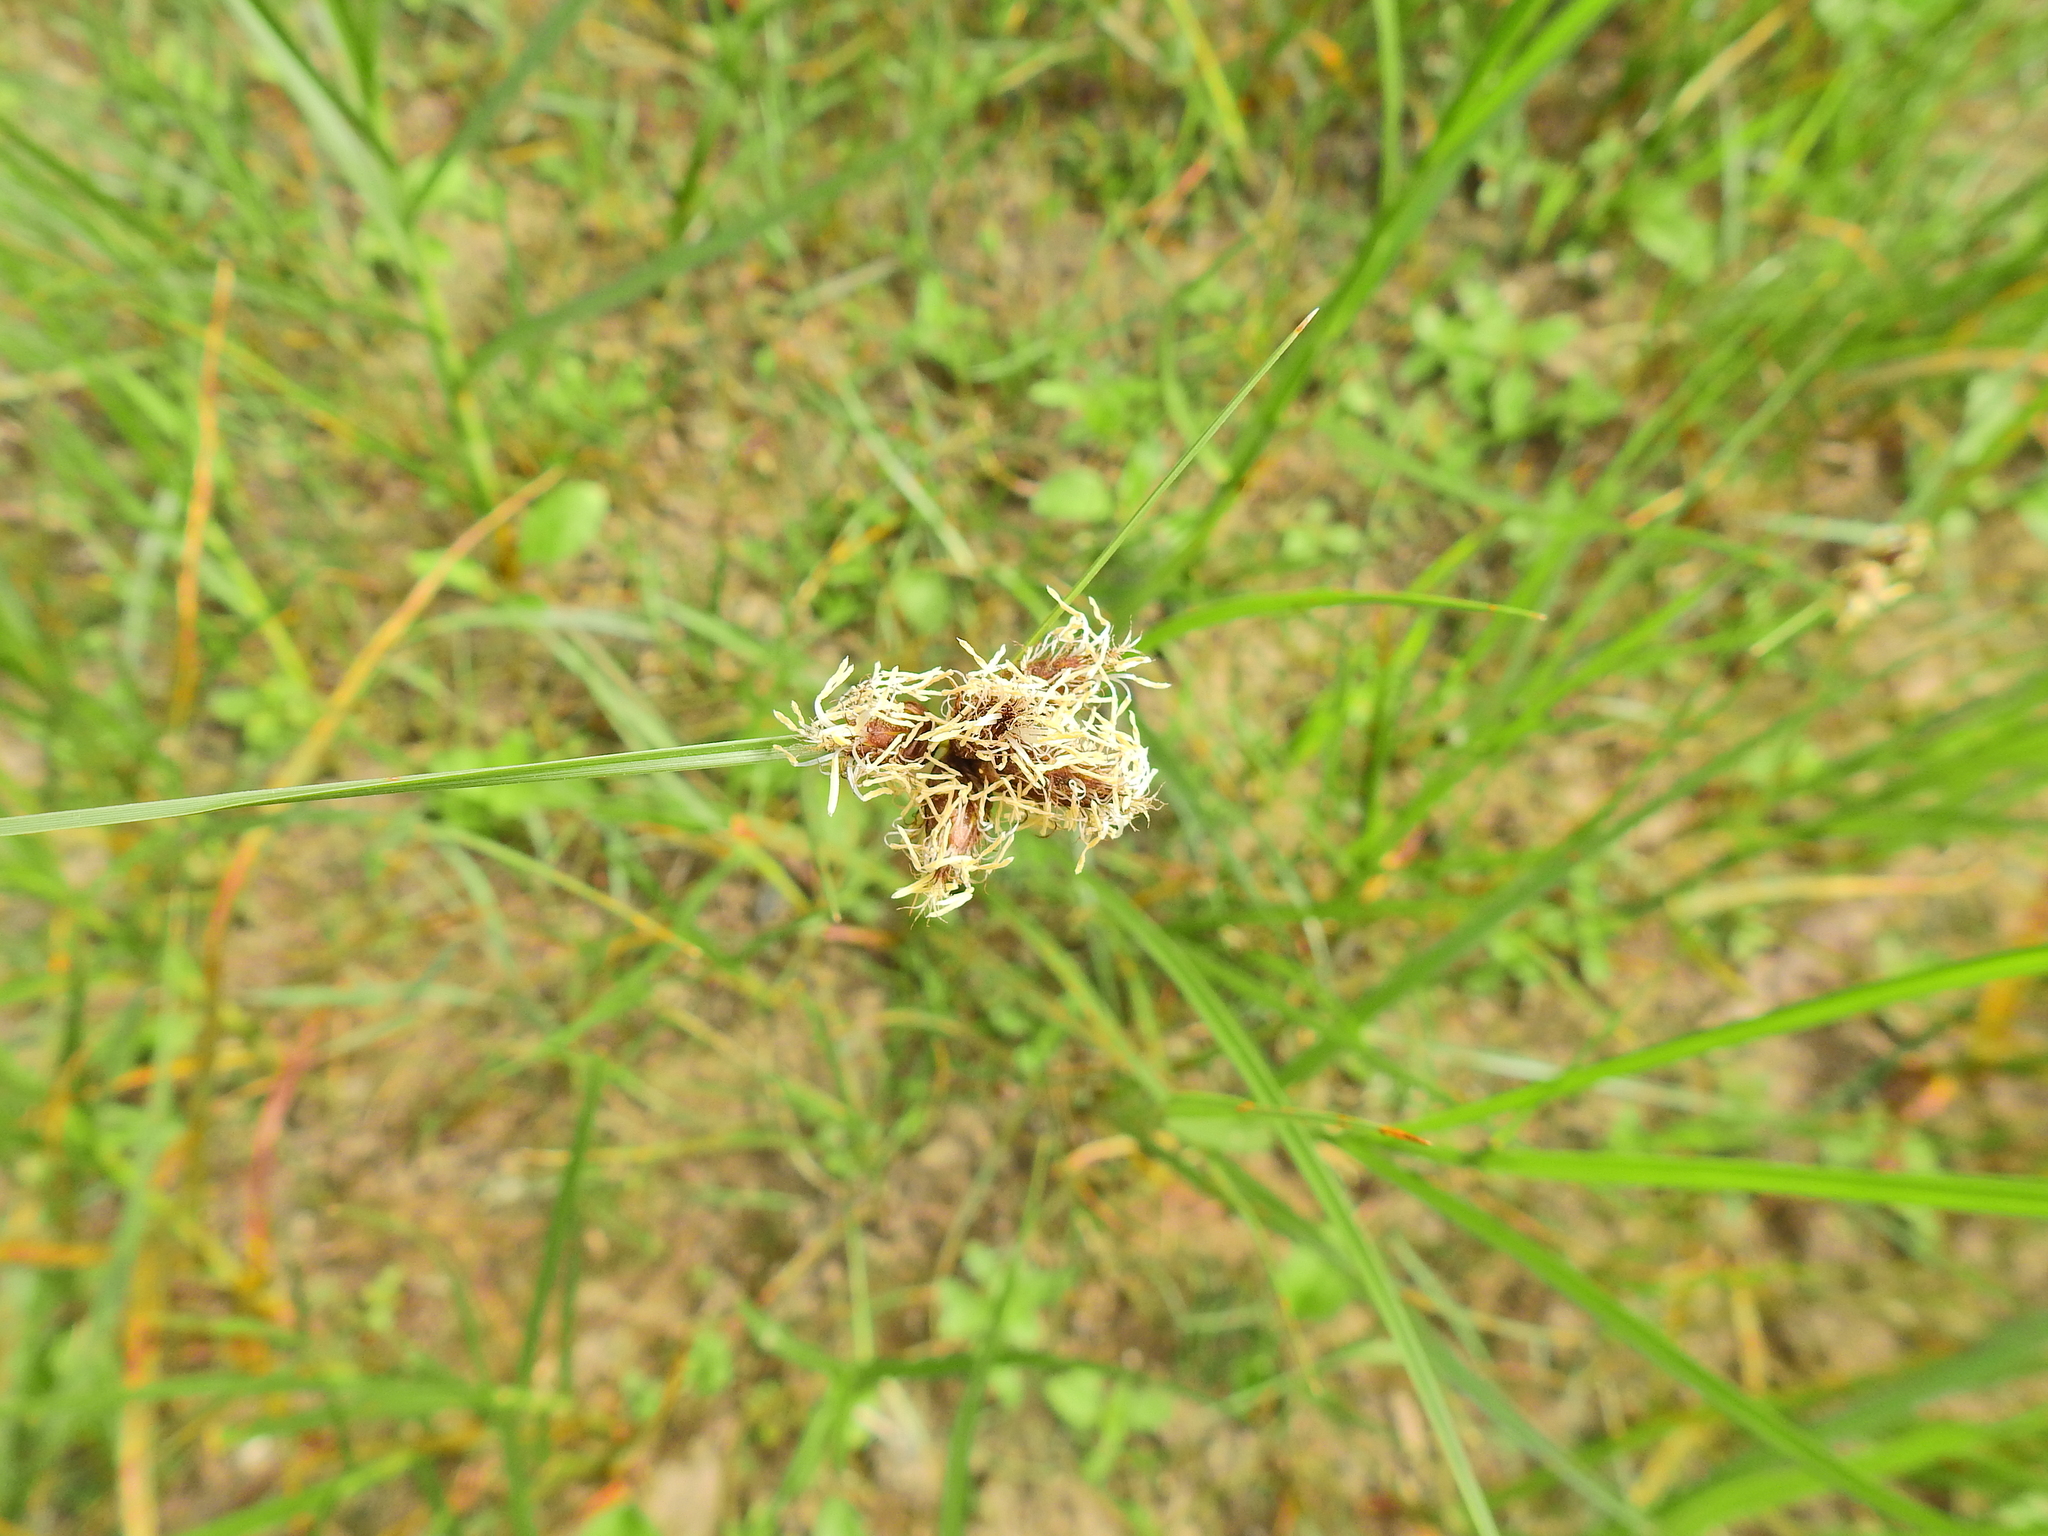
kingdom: Plantae
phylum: Tracheophyta
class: Liliopsida
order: Poales
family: Cyperaceae
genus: Bolboschoenus
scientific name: Bolboschoenus maritimus
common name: Sea club-rush
